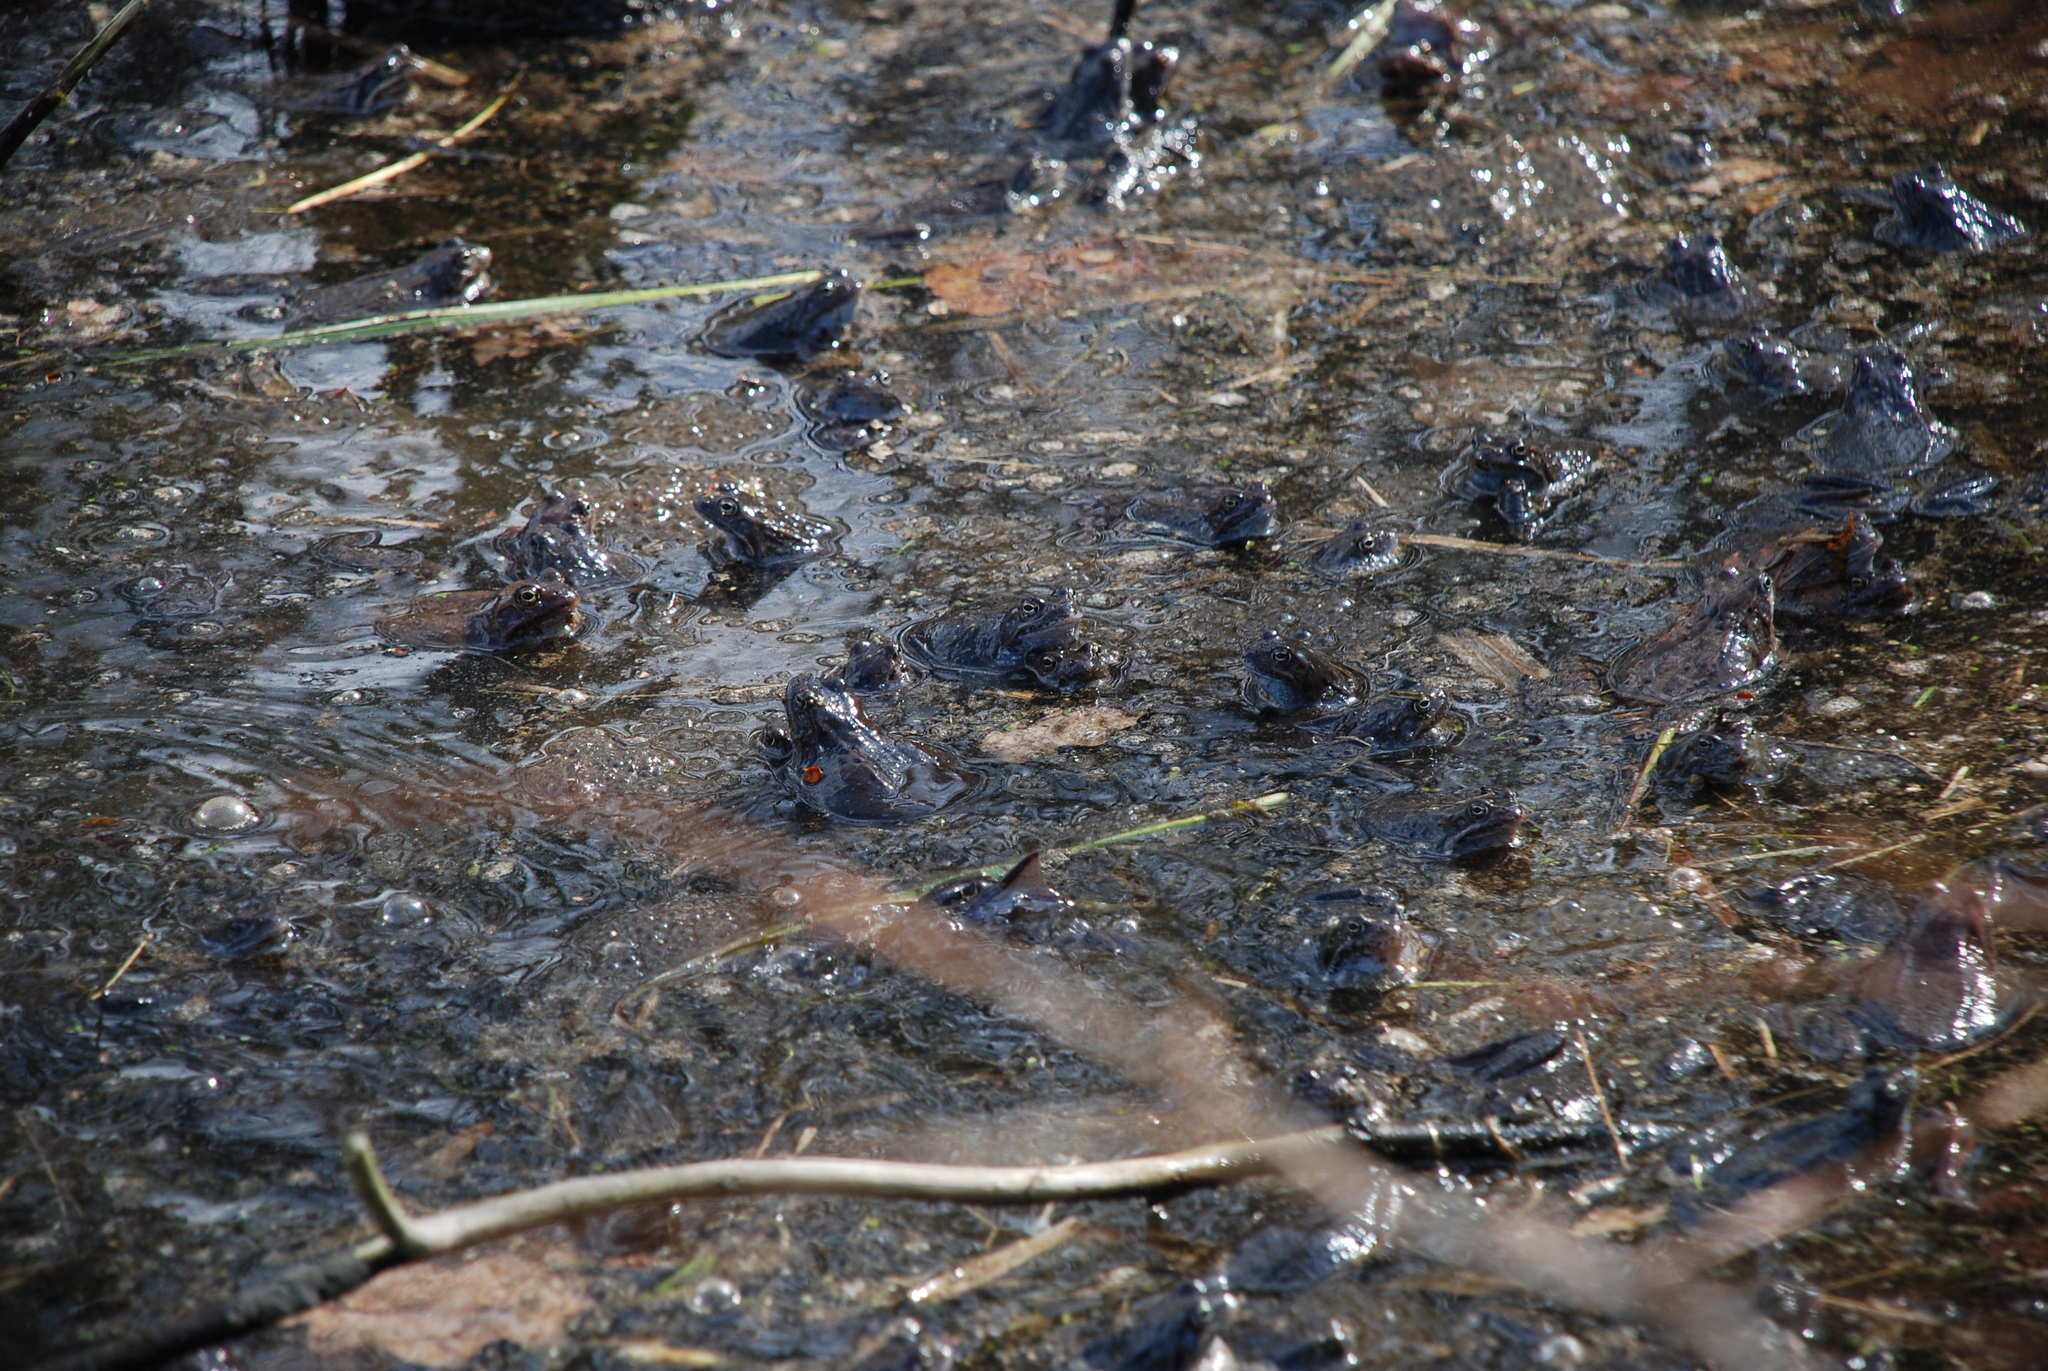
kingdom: Animalia
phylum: Chordata
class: Amphibia
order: Anura
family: Ranidae
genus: Rana
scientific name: Rana temporaria
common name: Common frog
